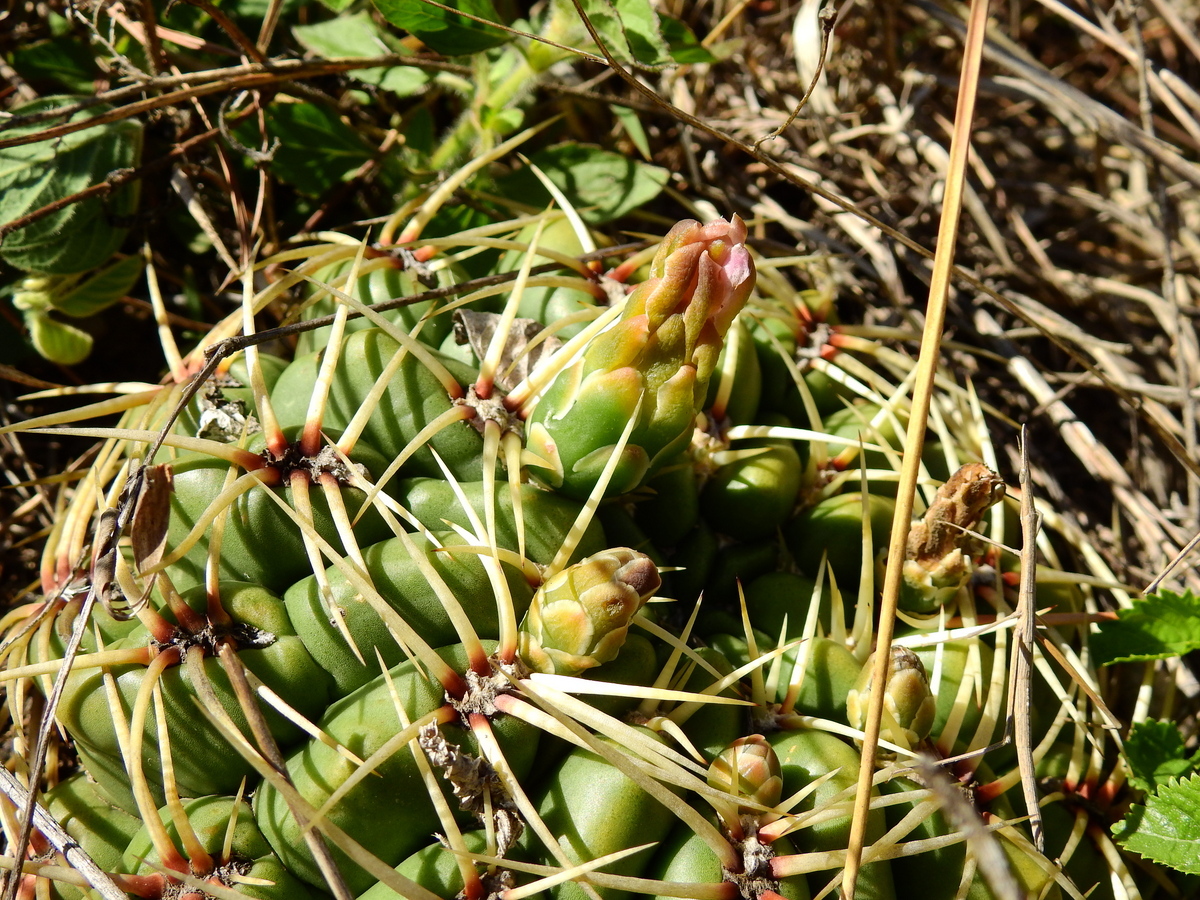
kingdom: Plantae
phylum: Tracheophyta
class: Magnoliopsida
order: Caryophyllales
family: Cactaceae
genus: Gymnocalycium
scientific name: Gymnocalycium monvillei
